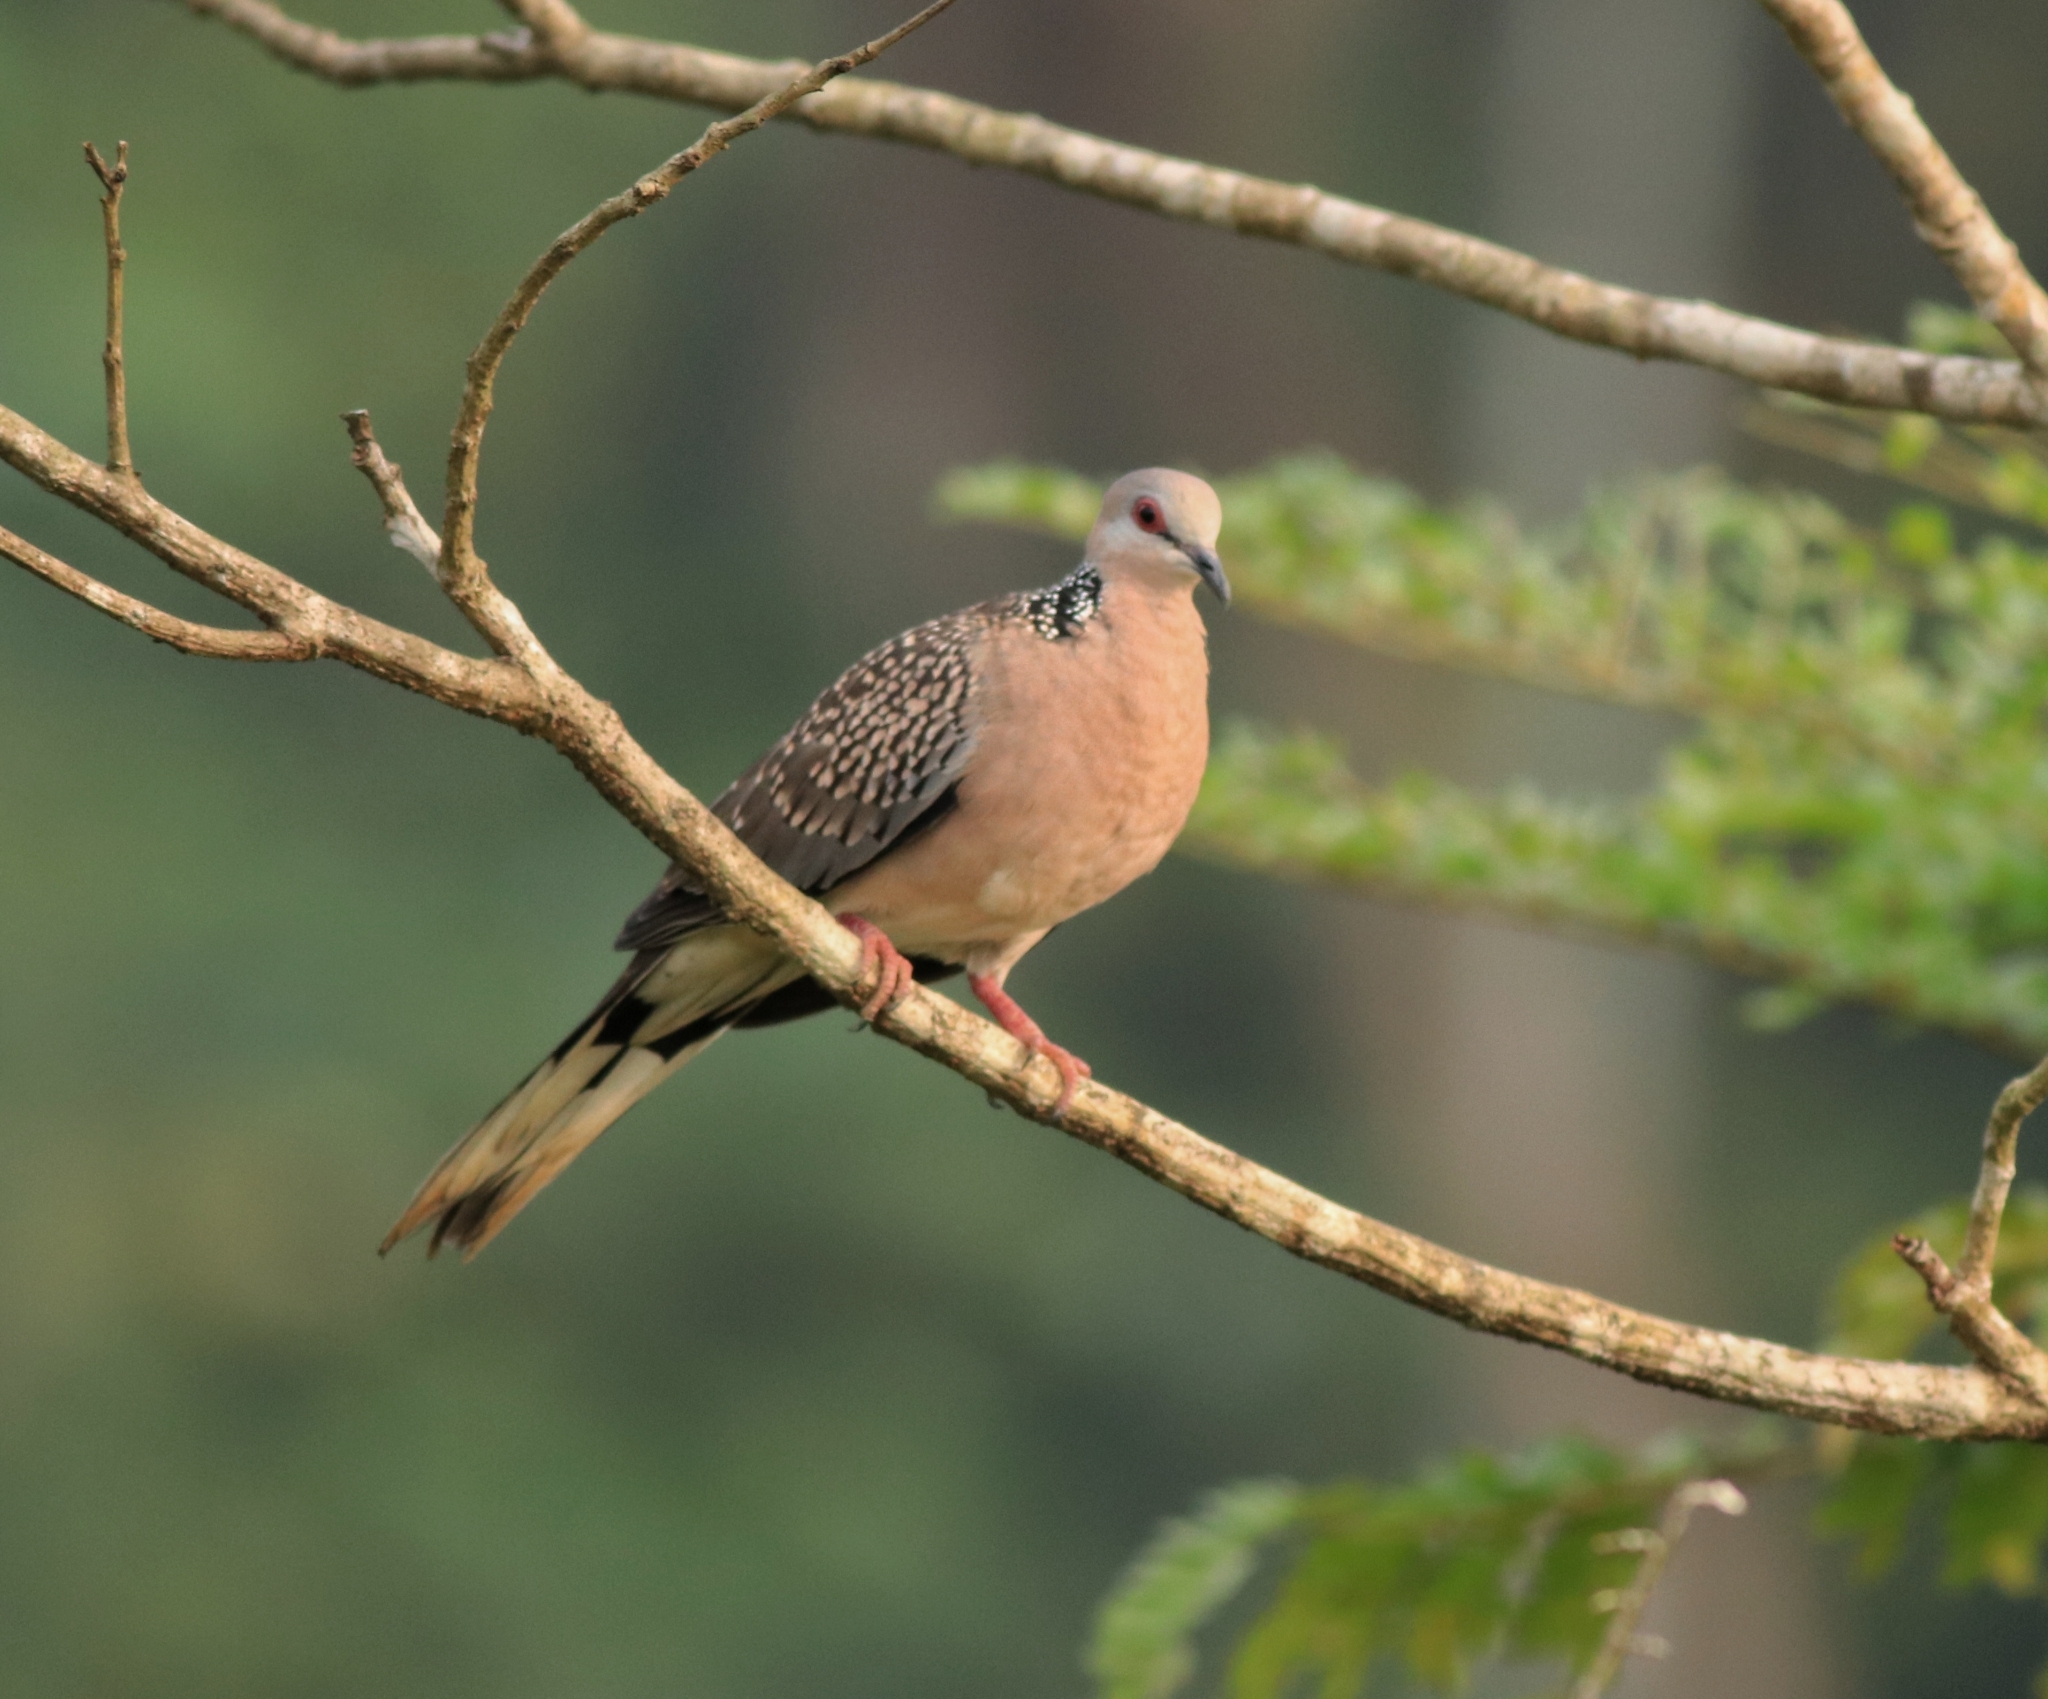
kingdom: Animalia
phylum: Chordata
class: Aves
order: Columbiformes
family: Columbidae
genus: Spilopelia
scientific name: Spilopelia chinensis
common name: Spotted dove
